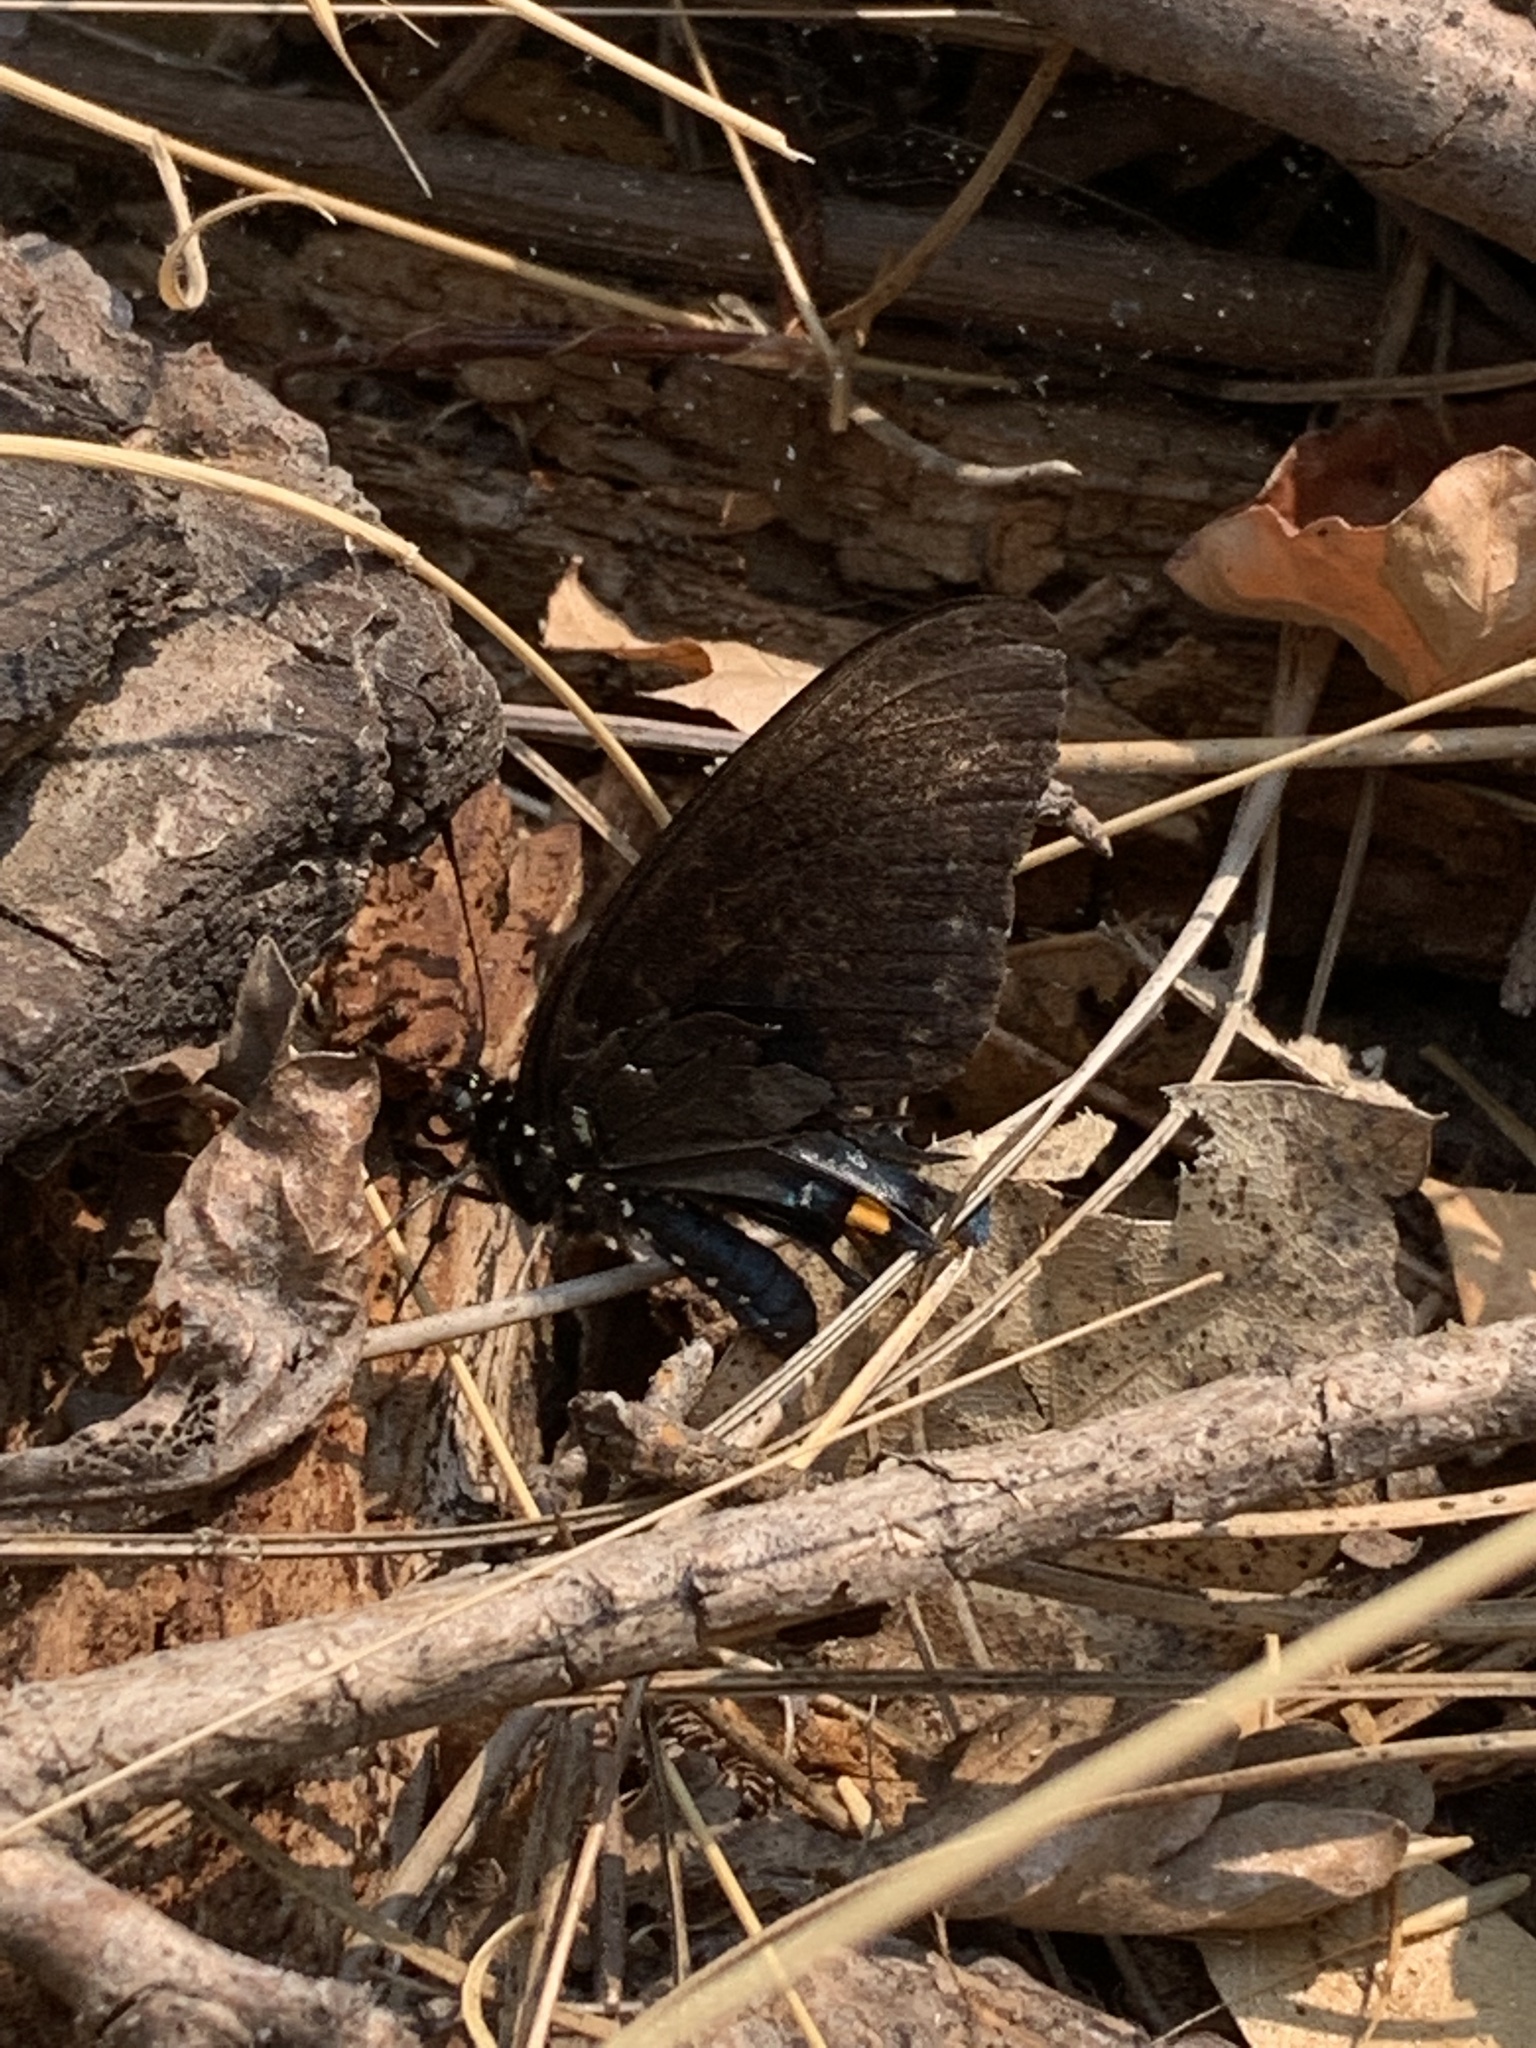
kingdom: Animalia
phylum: Arthropoda
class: Insecta
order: Lepidoptera
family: Papilionidae
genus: Battus
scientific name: Battus philenor
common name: Pipevine swallowtail
